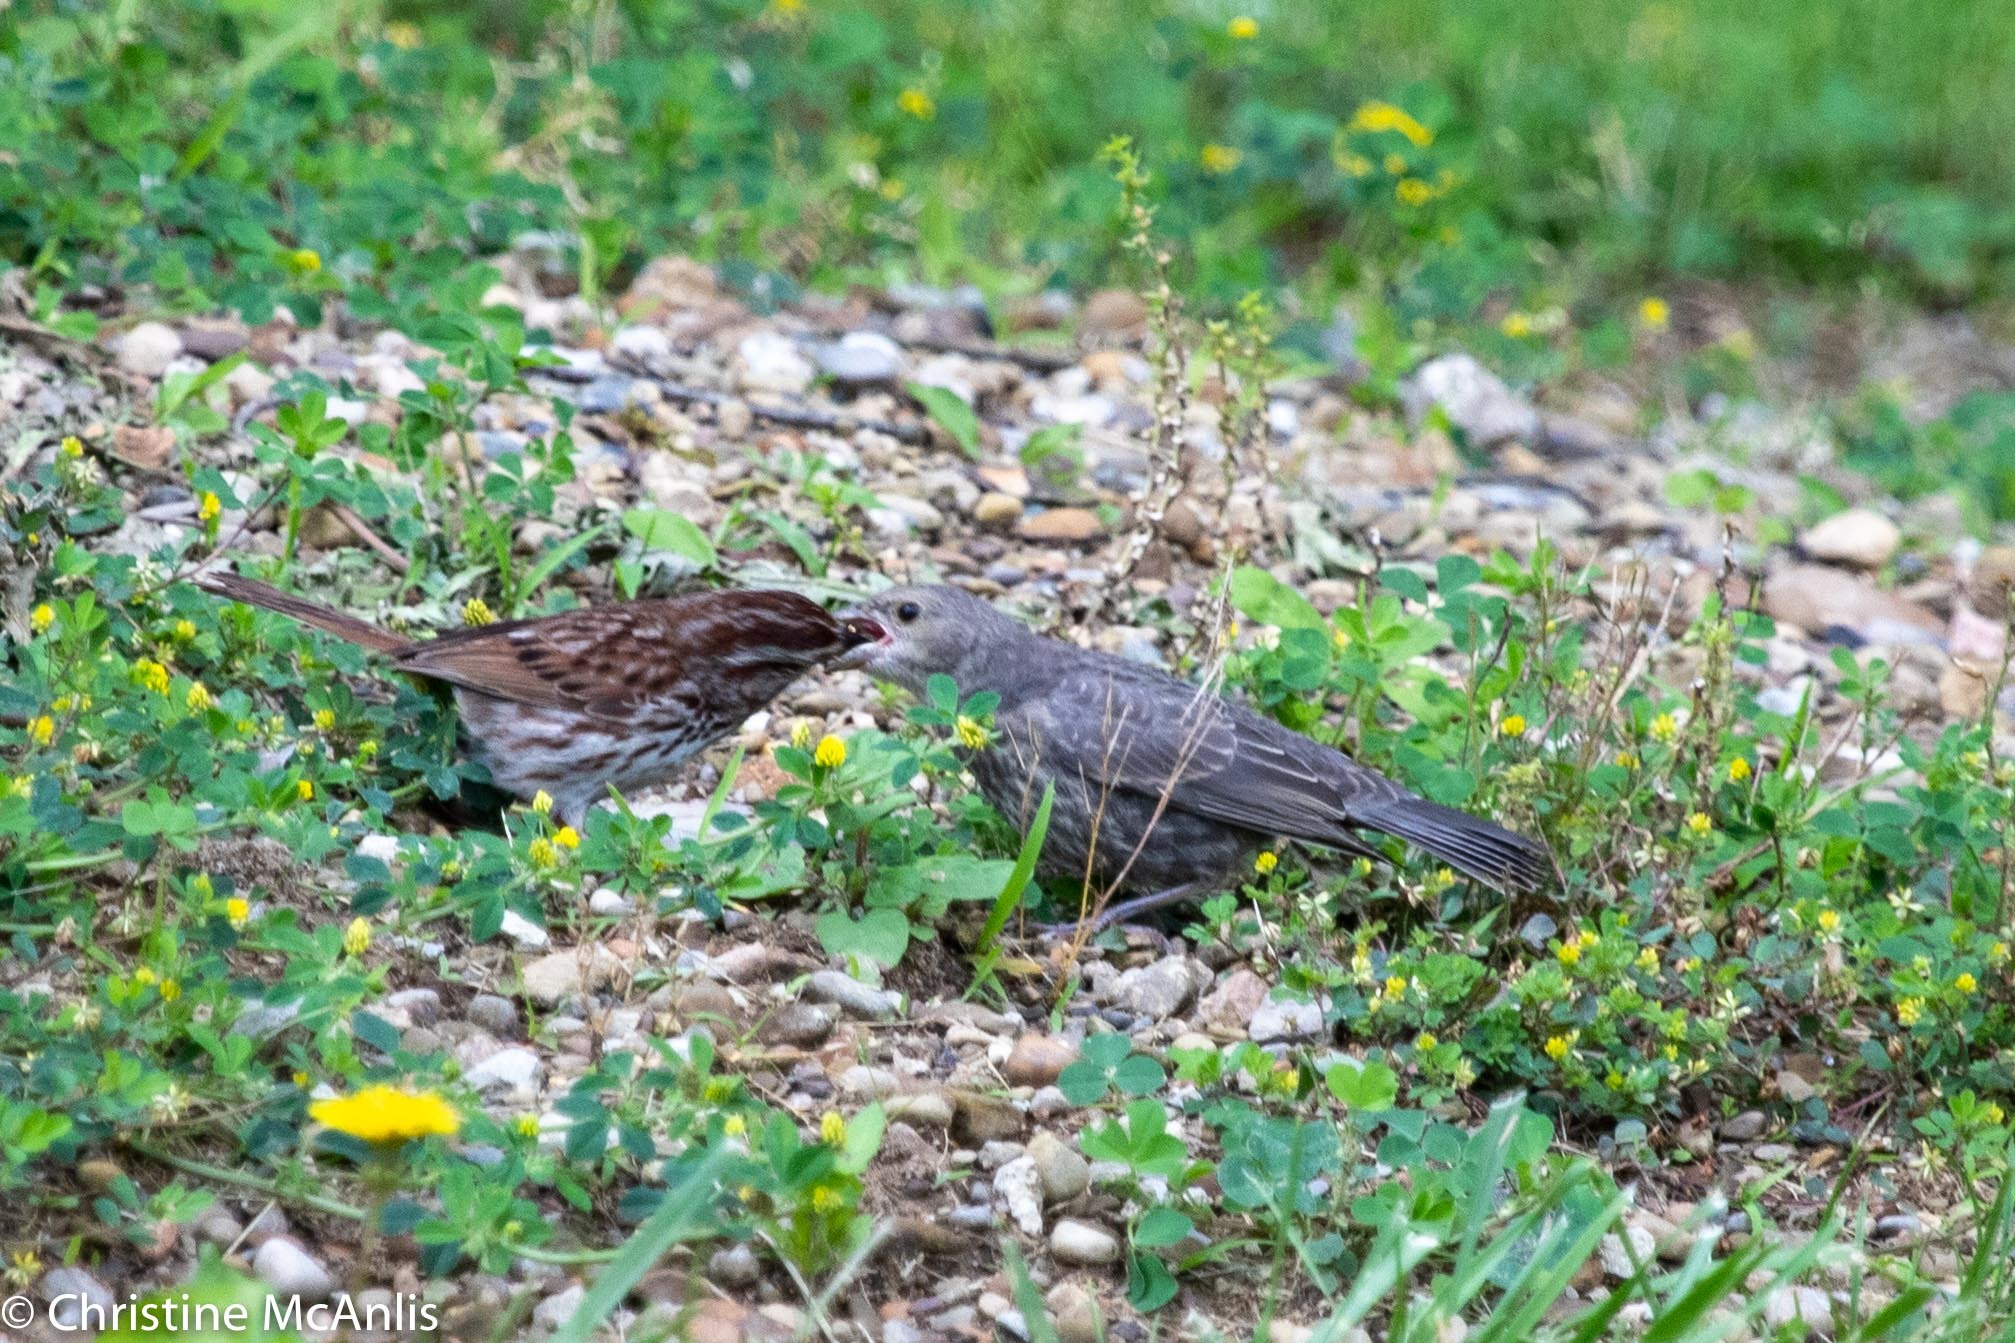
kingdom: Animalia
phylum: Chordata
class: Aves
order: Passeriformes
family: Icteridae
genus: Molothrus
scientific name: Molothrus ater
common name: Brown-headed cowbird
